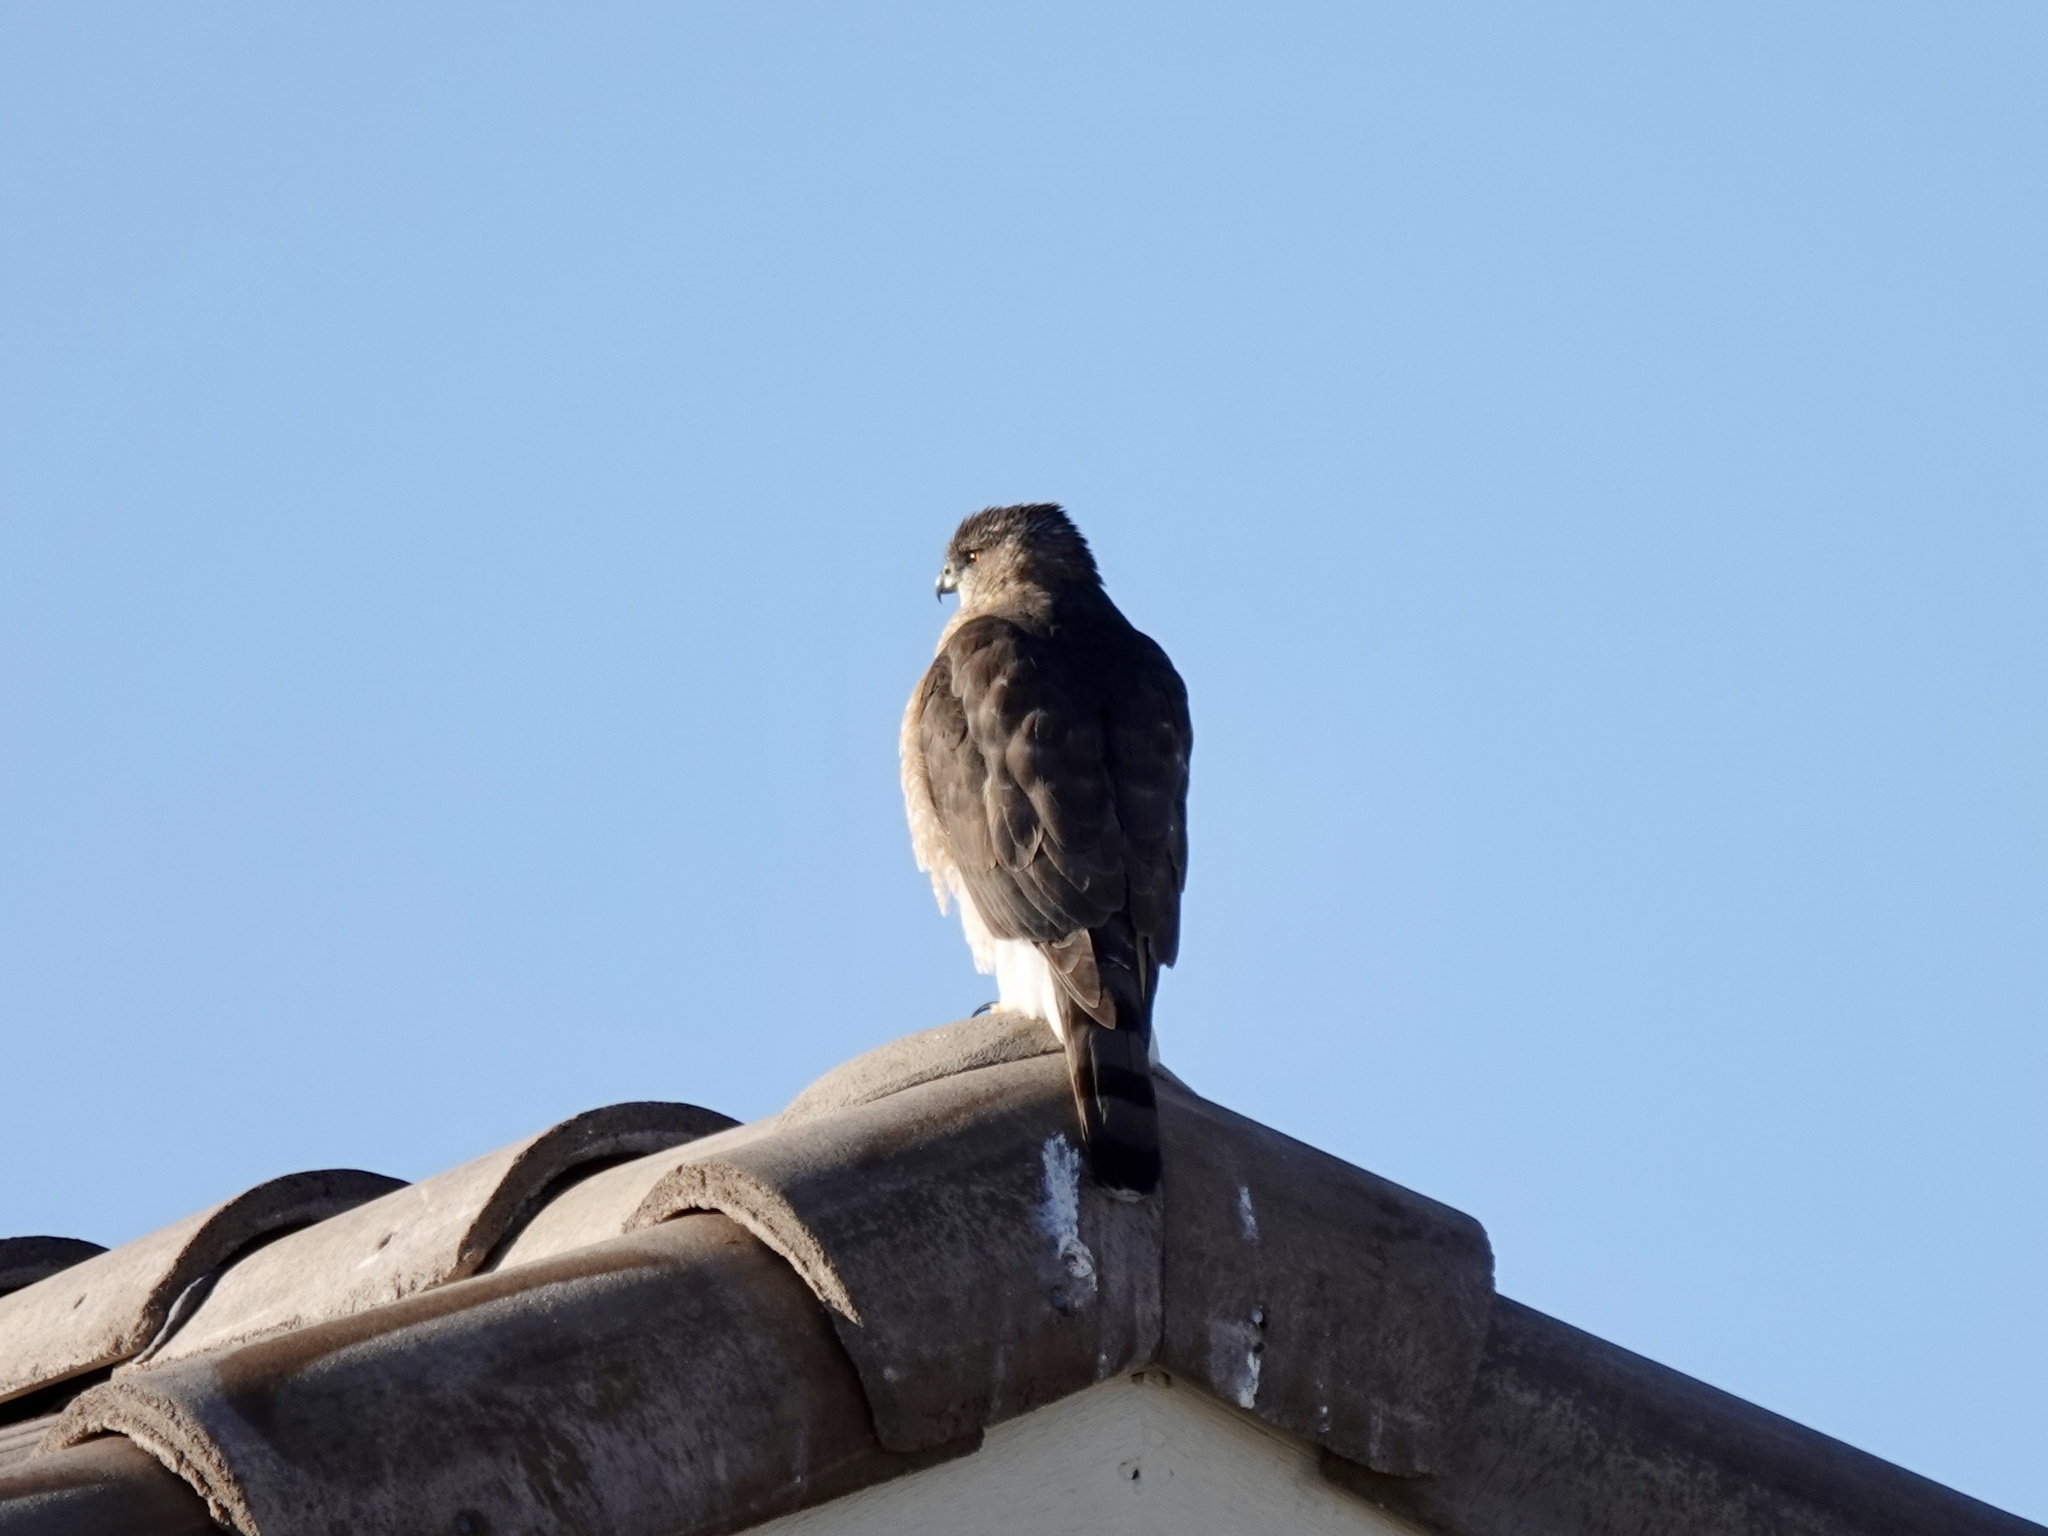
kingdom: Animalia
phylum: Chordata
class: Aves
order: Accipitriformes
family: Accipitridae
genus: Accipiter
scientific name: Accipiter cooperii
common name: Cooper's hawk
